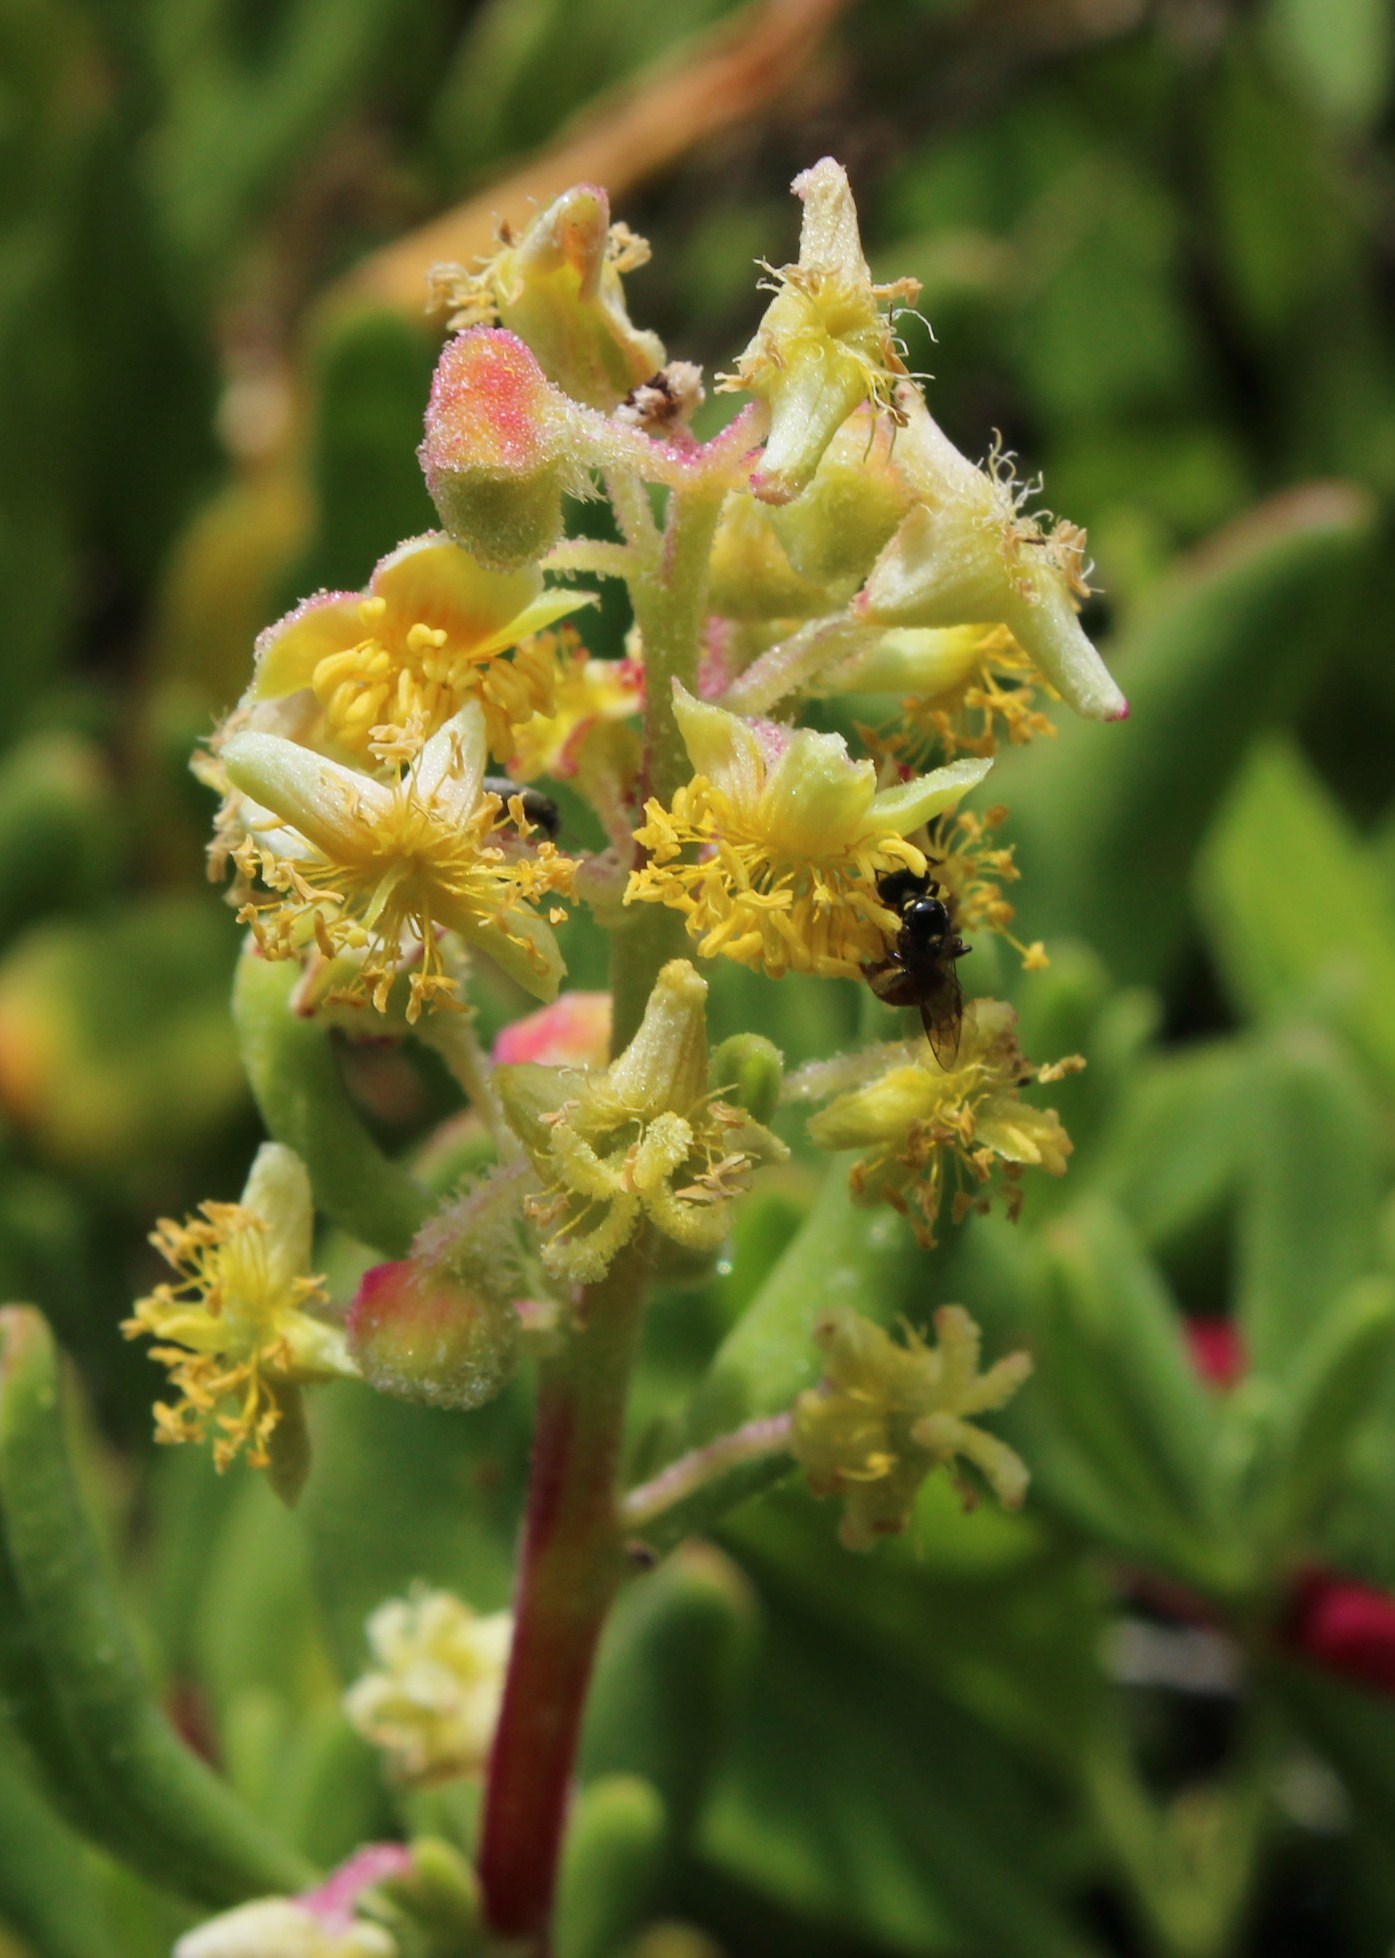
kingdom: Plantae
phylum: Tracheophyta
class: Magnoliopsida
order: Caryophyllales
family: Aizoaceae
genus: Tetragonia
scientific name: Tetragonia fruticosa
